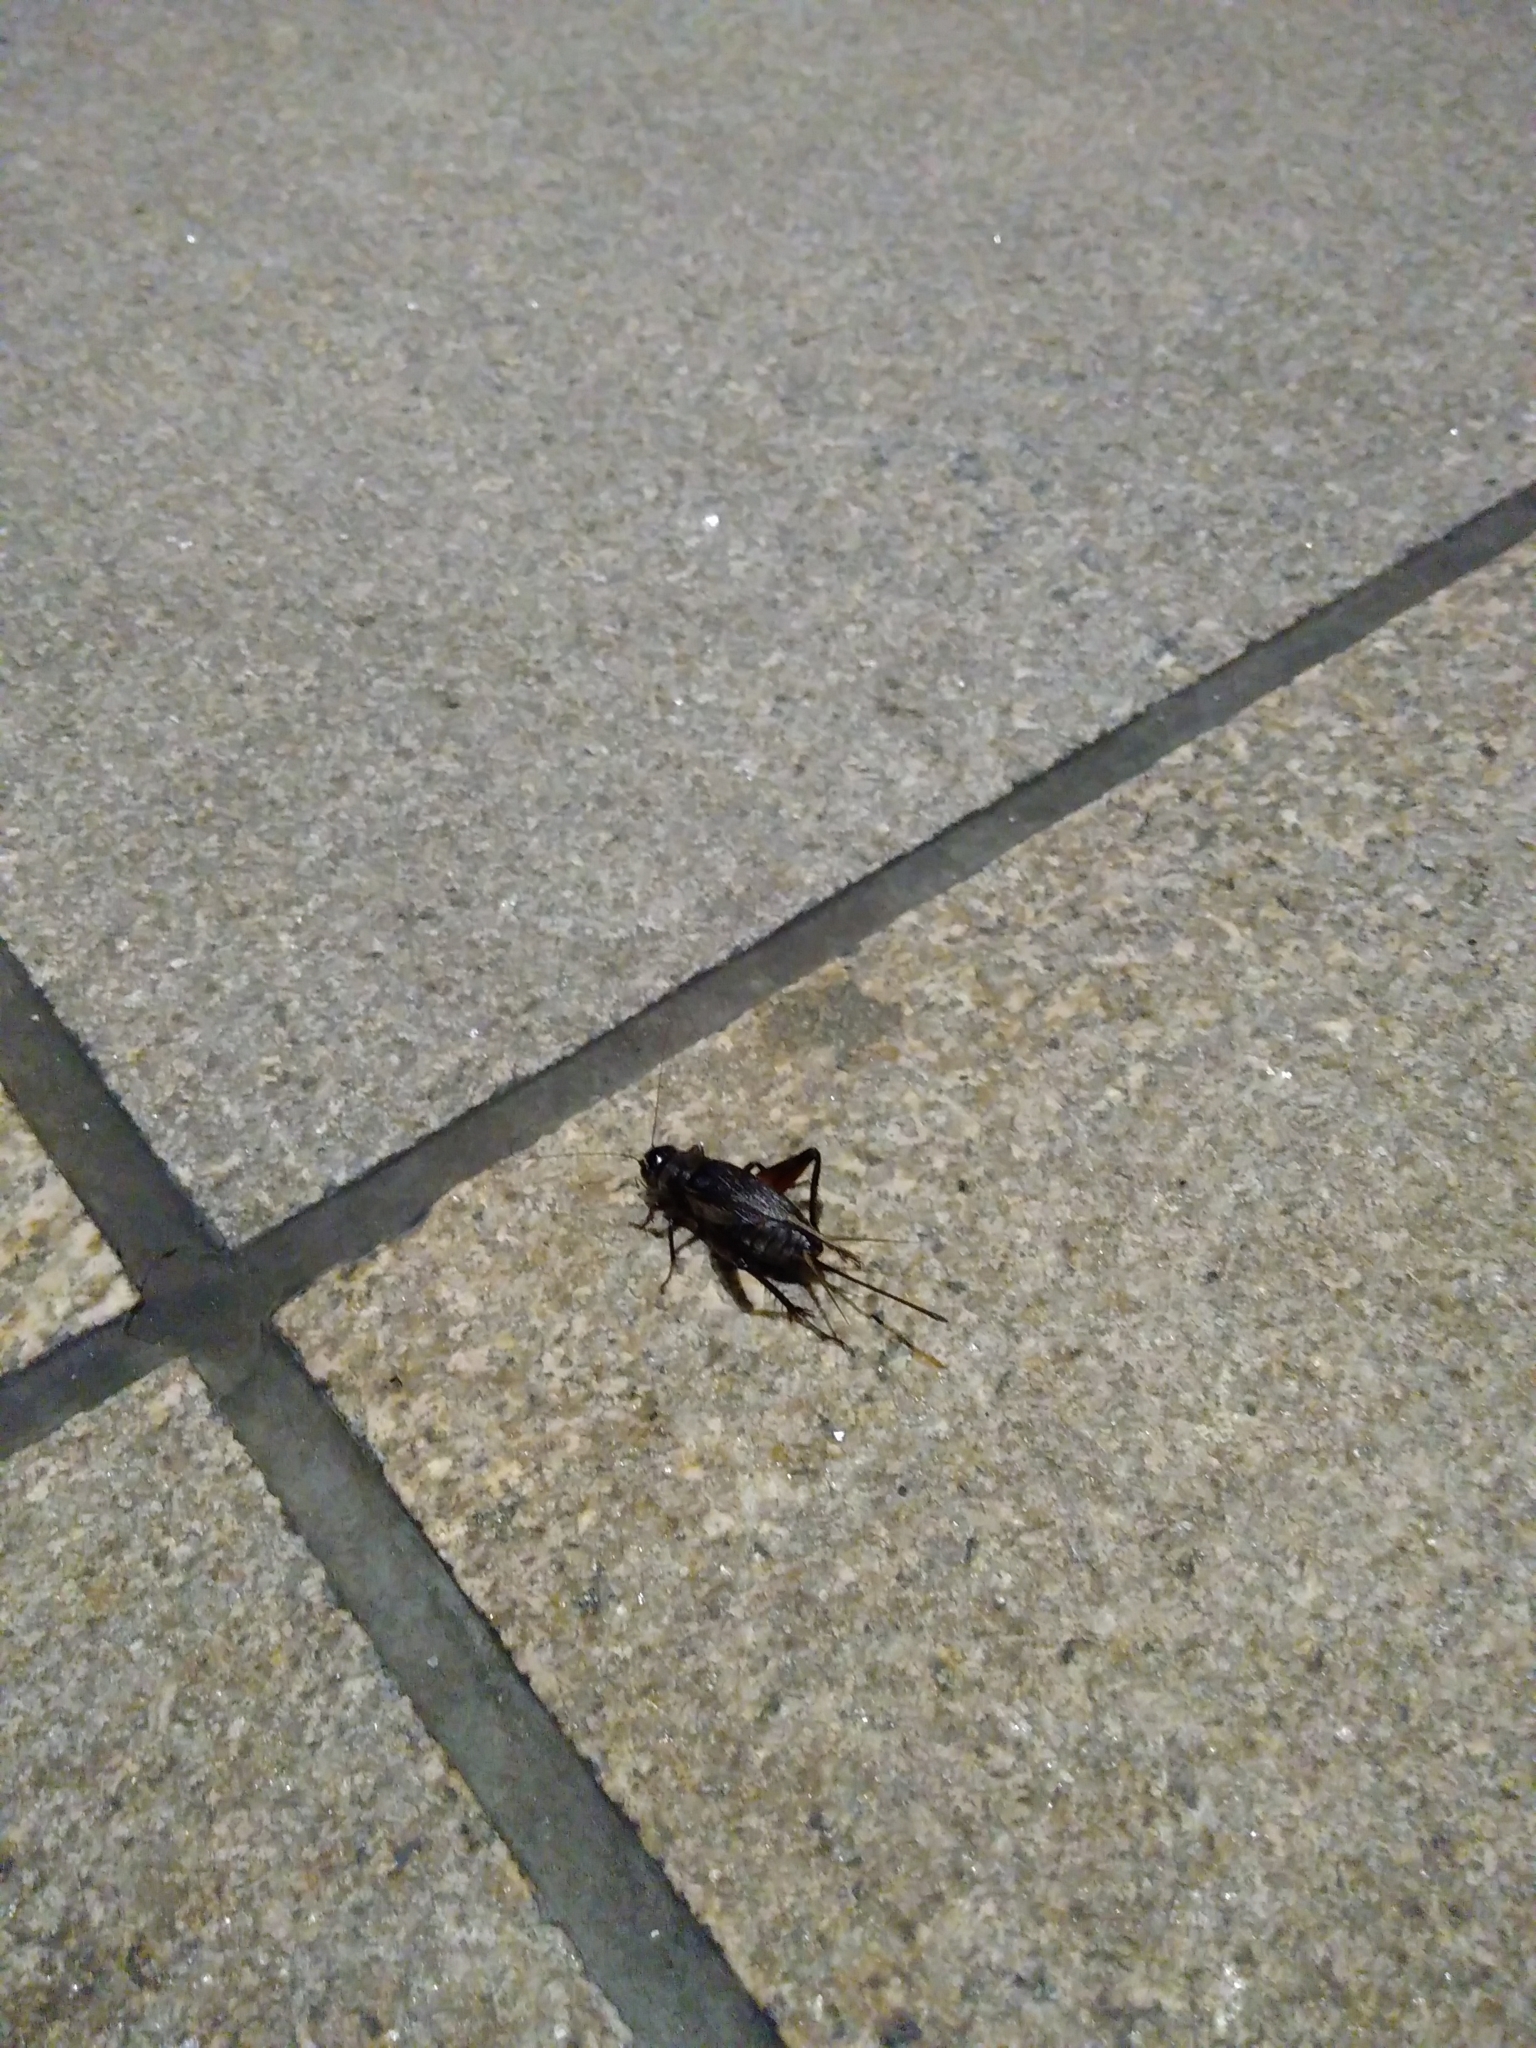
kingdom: Animalia
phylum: Arthropoda
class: Insecta
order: Orthoptera
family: Gryllidae
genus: Teleogryllus
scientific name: Teleogryllus emma
